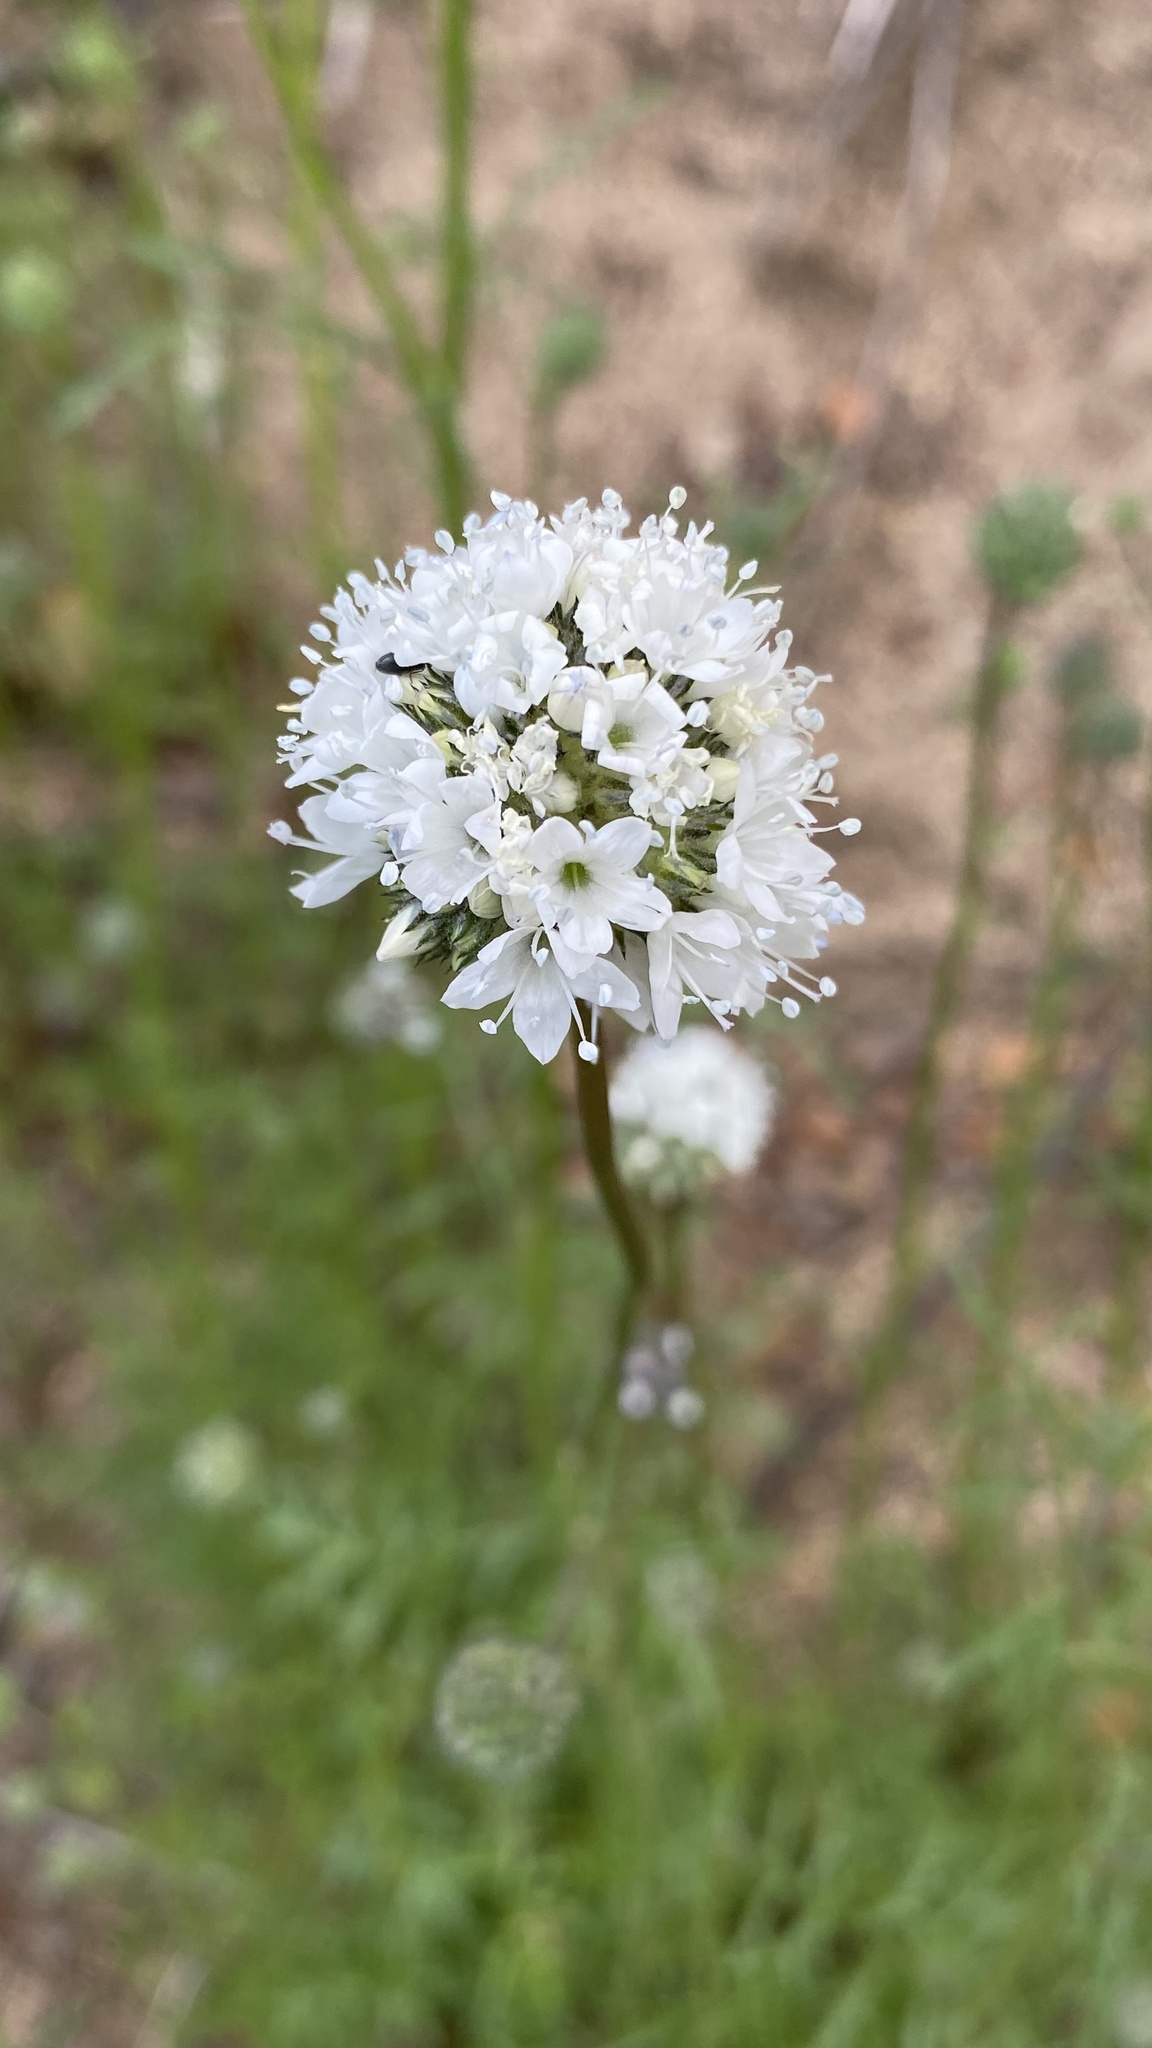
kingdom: Plantae
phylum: Tracheophyta
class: Magnoliopsida
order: Ericales
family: Polemoniaceae
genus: Gilia
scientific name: Gilia capitata
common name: Bluehead gilia
